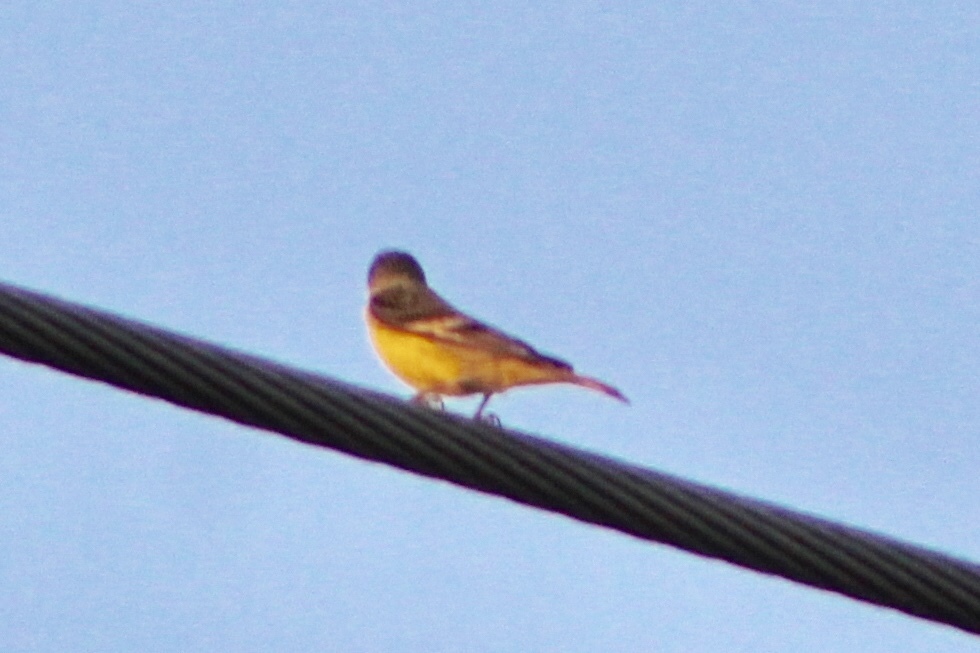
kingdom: Animalia
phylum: Chordata
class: Aves
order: Passeriformes
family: Fringillidae
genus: Spinus
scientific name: Spinus psaltria
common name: Lesser goldfinch
